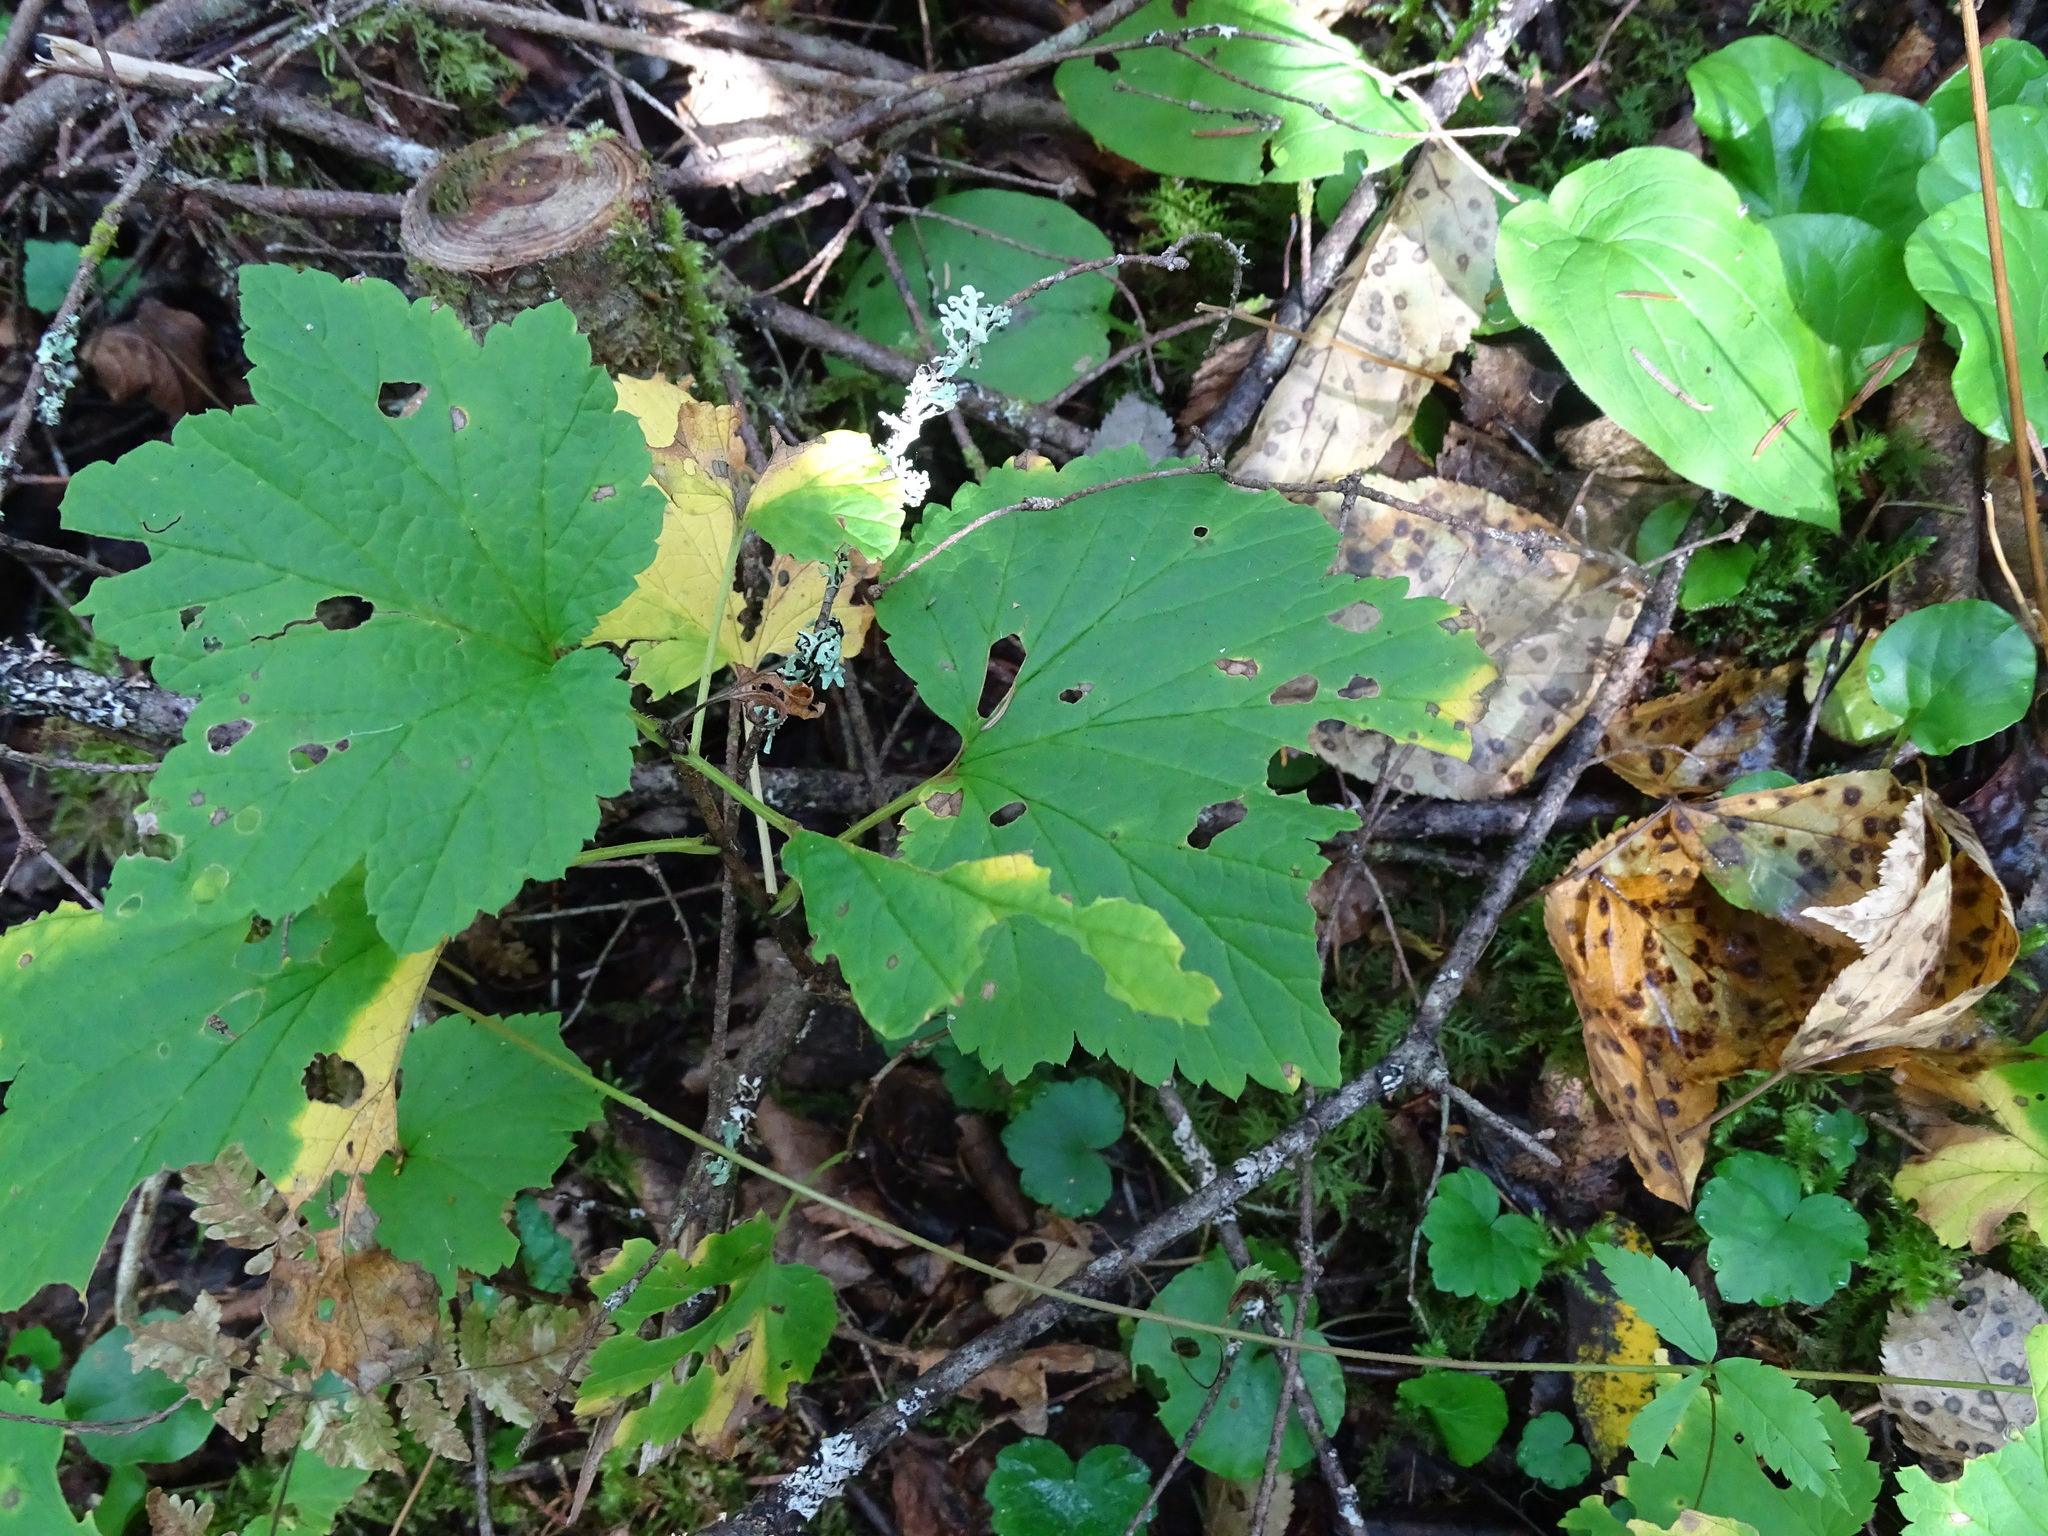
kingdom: Plantae
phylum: Tracheophyta
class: Magnoliopsida
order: Saxifragales
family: Grossulariaceae
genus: Ribes
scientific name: Ribes triste
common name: Swamp red currant
